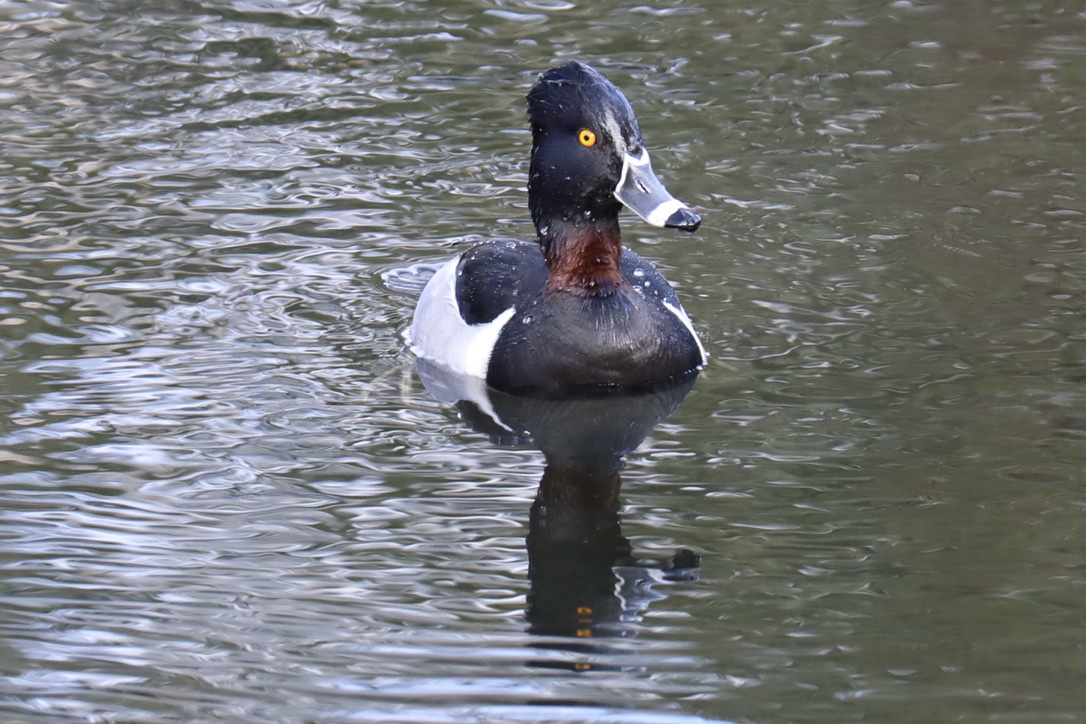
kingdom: Animalia
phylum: Chordata
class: Aves
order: Anseriformes
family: Anatidae
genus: Aythya
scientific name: Aythya collaris
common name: Ring-necked duck
